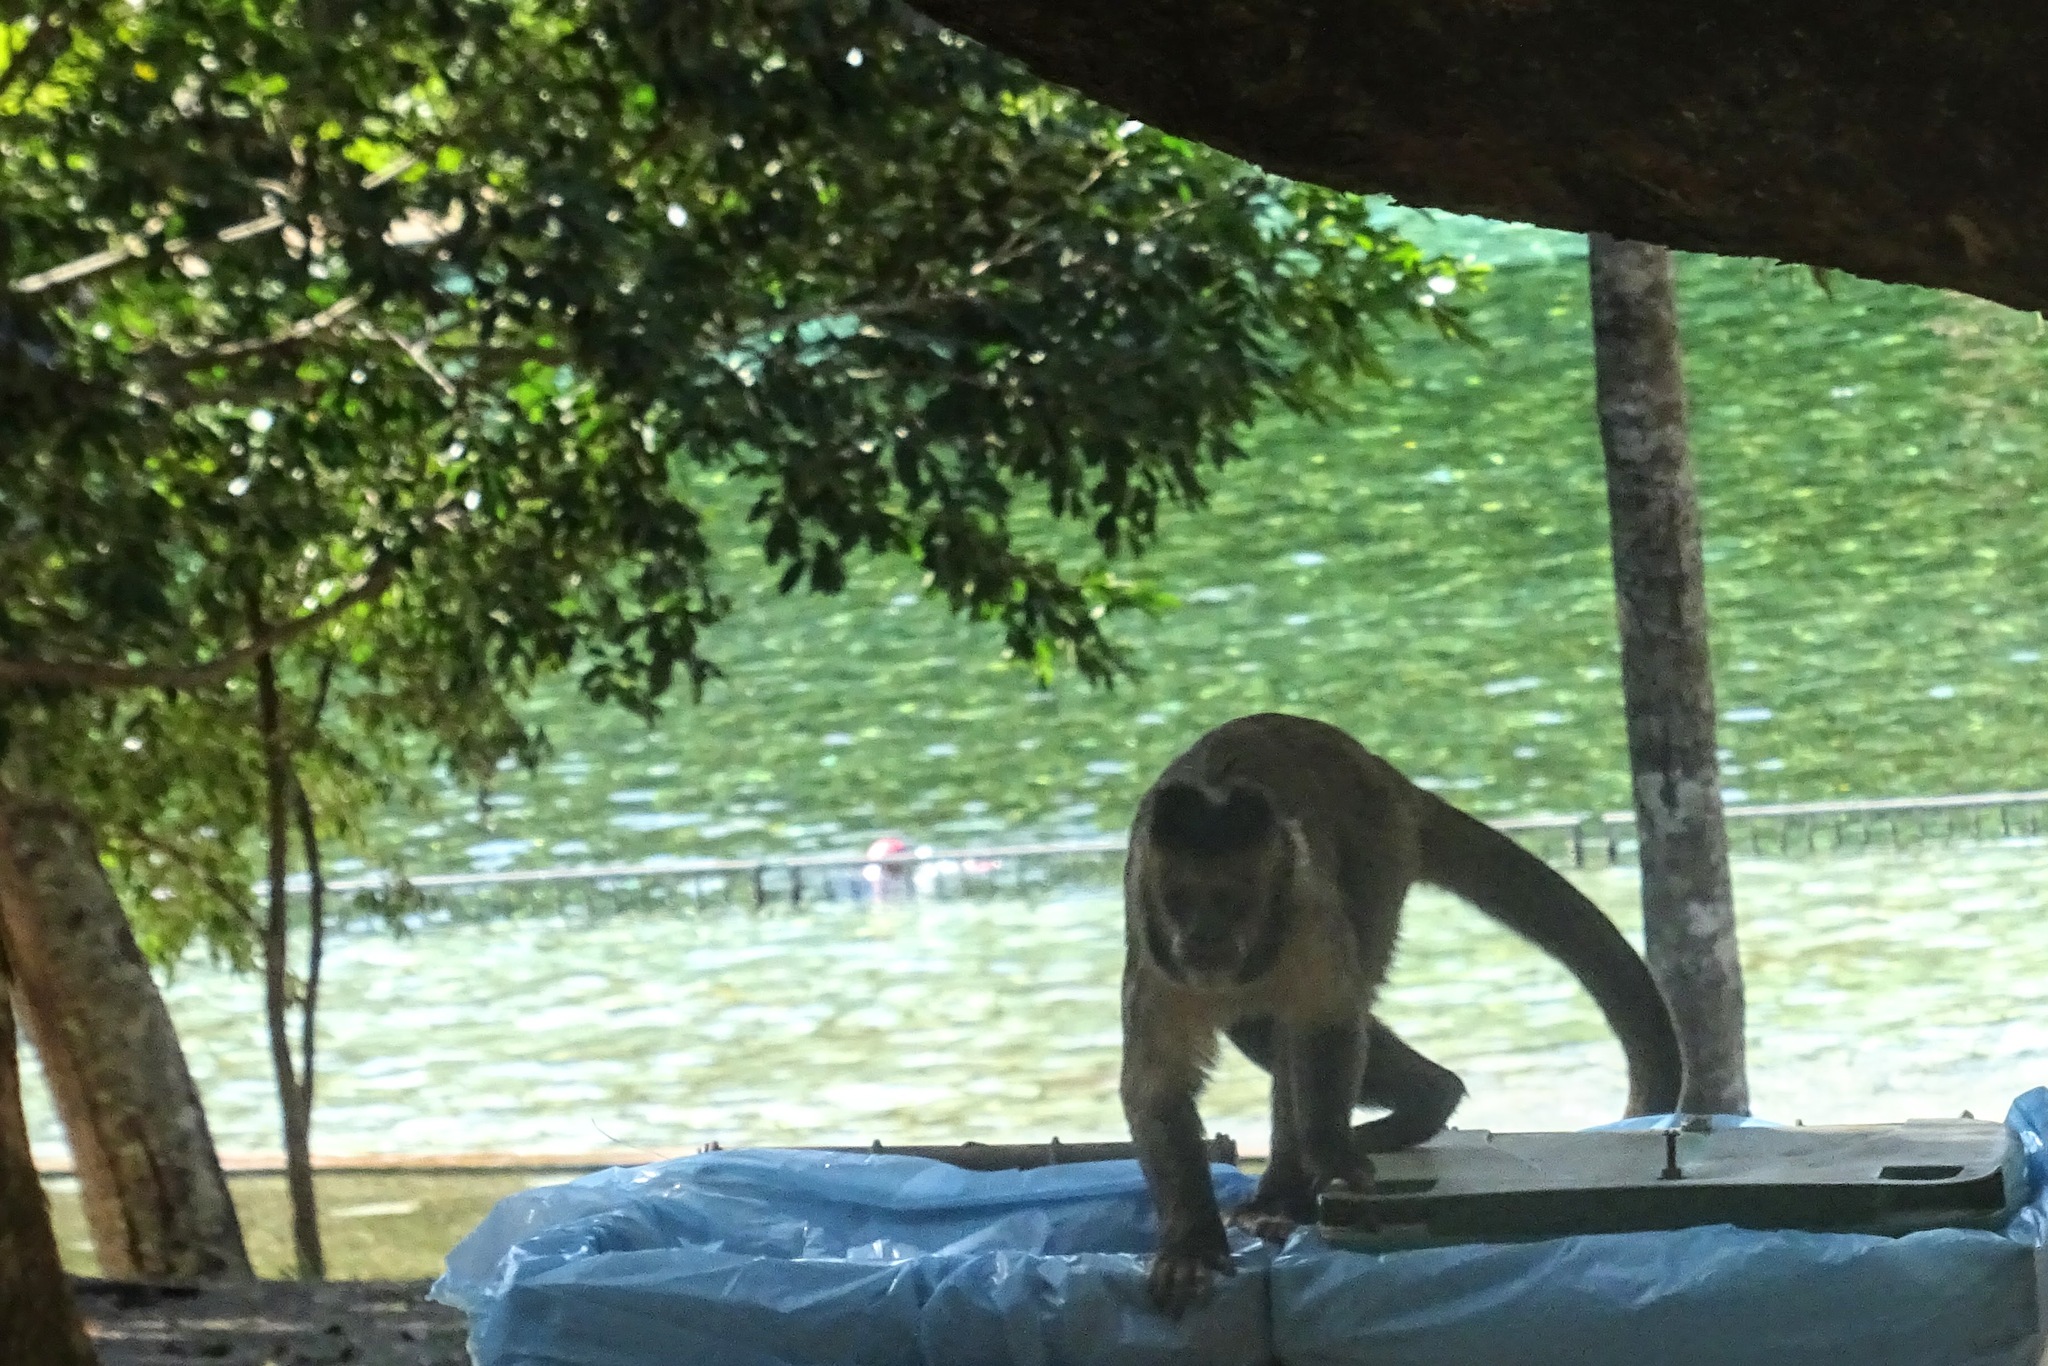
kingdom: Animalia
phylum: Chordata
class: Mammalia
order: Primates
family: Cebidae
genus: Sapajus
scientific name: Sapajus libidinosus
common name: Bearded capuchin
